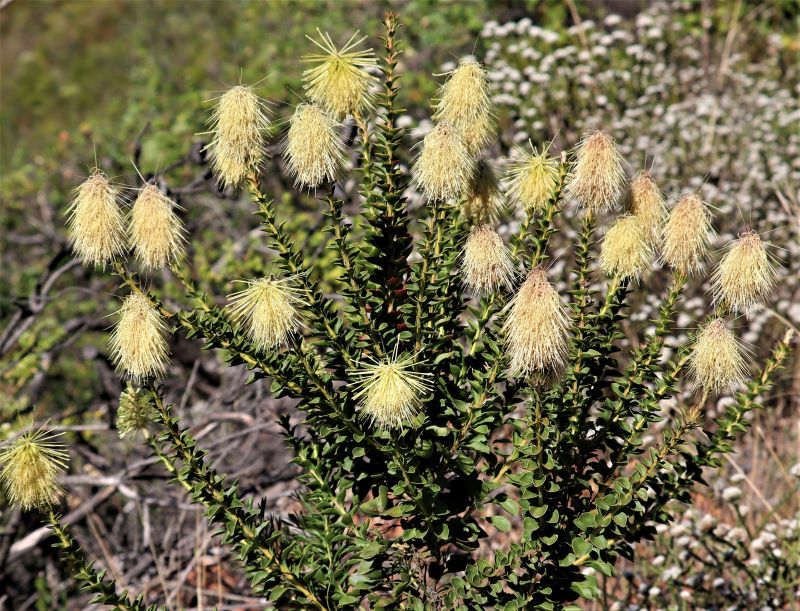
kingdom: Plantae
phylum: Tracheophyta
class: Magnoliopsida
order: Proteales
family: Proteaceae
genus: Paranomus
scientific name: Paranomus reflexus
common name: Van staden's sceptre
